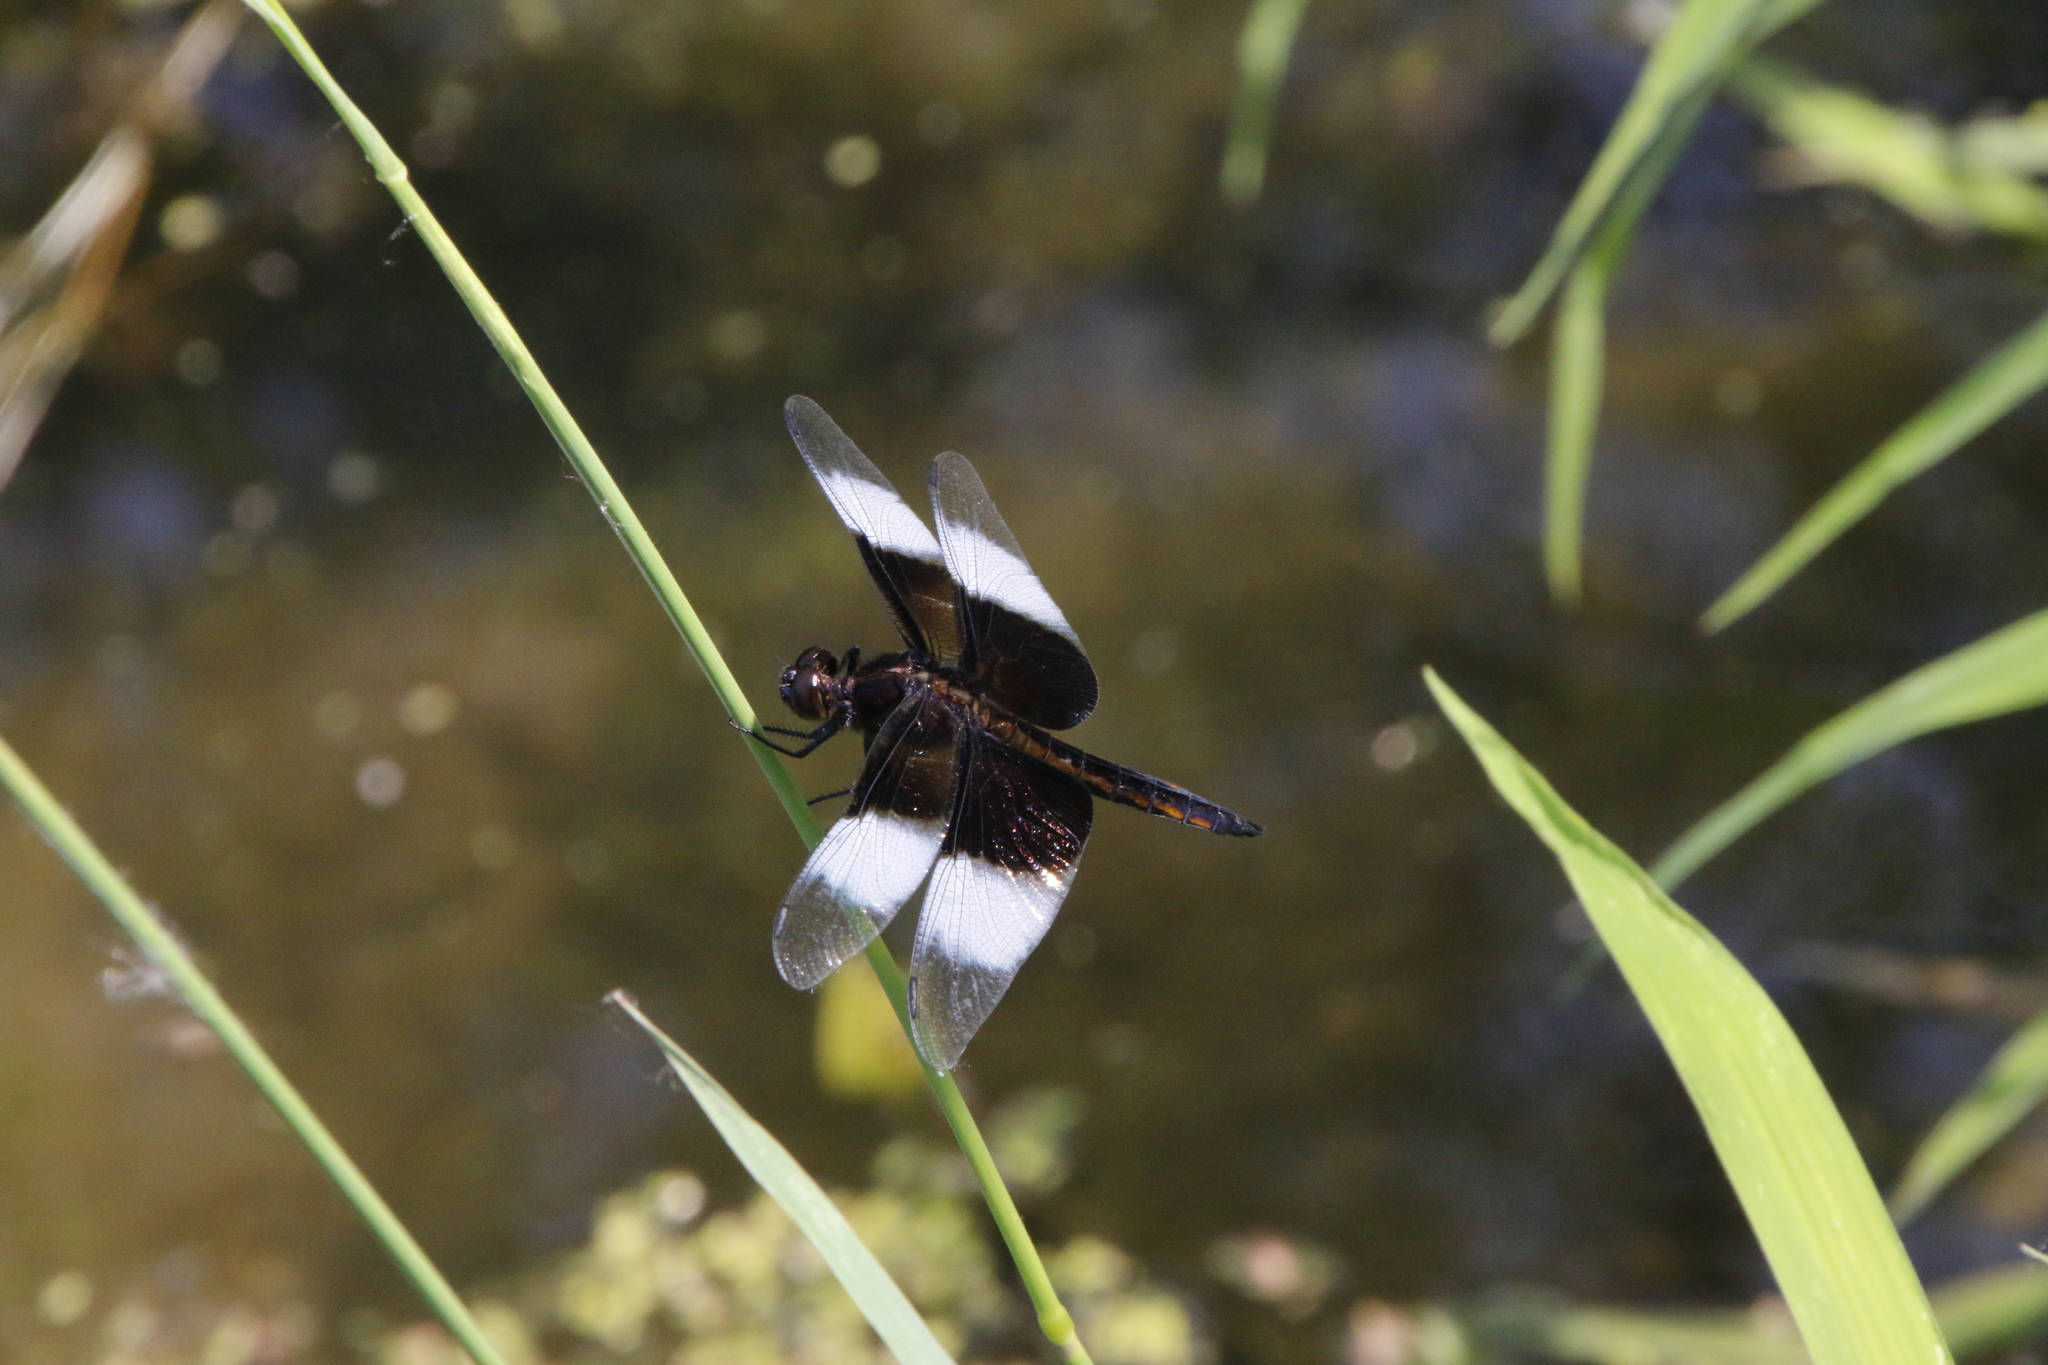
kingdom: Animalia
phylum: Arthropoda
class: Insecta
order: Odonata
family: Libellulidae
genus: Libellula
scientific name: Libellula luctuosa
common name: Widow skimmer
